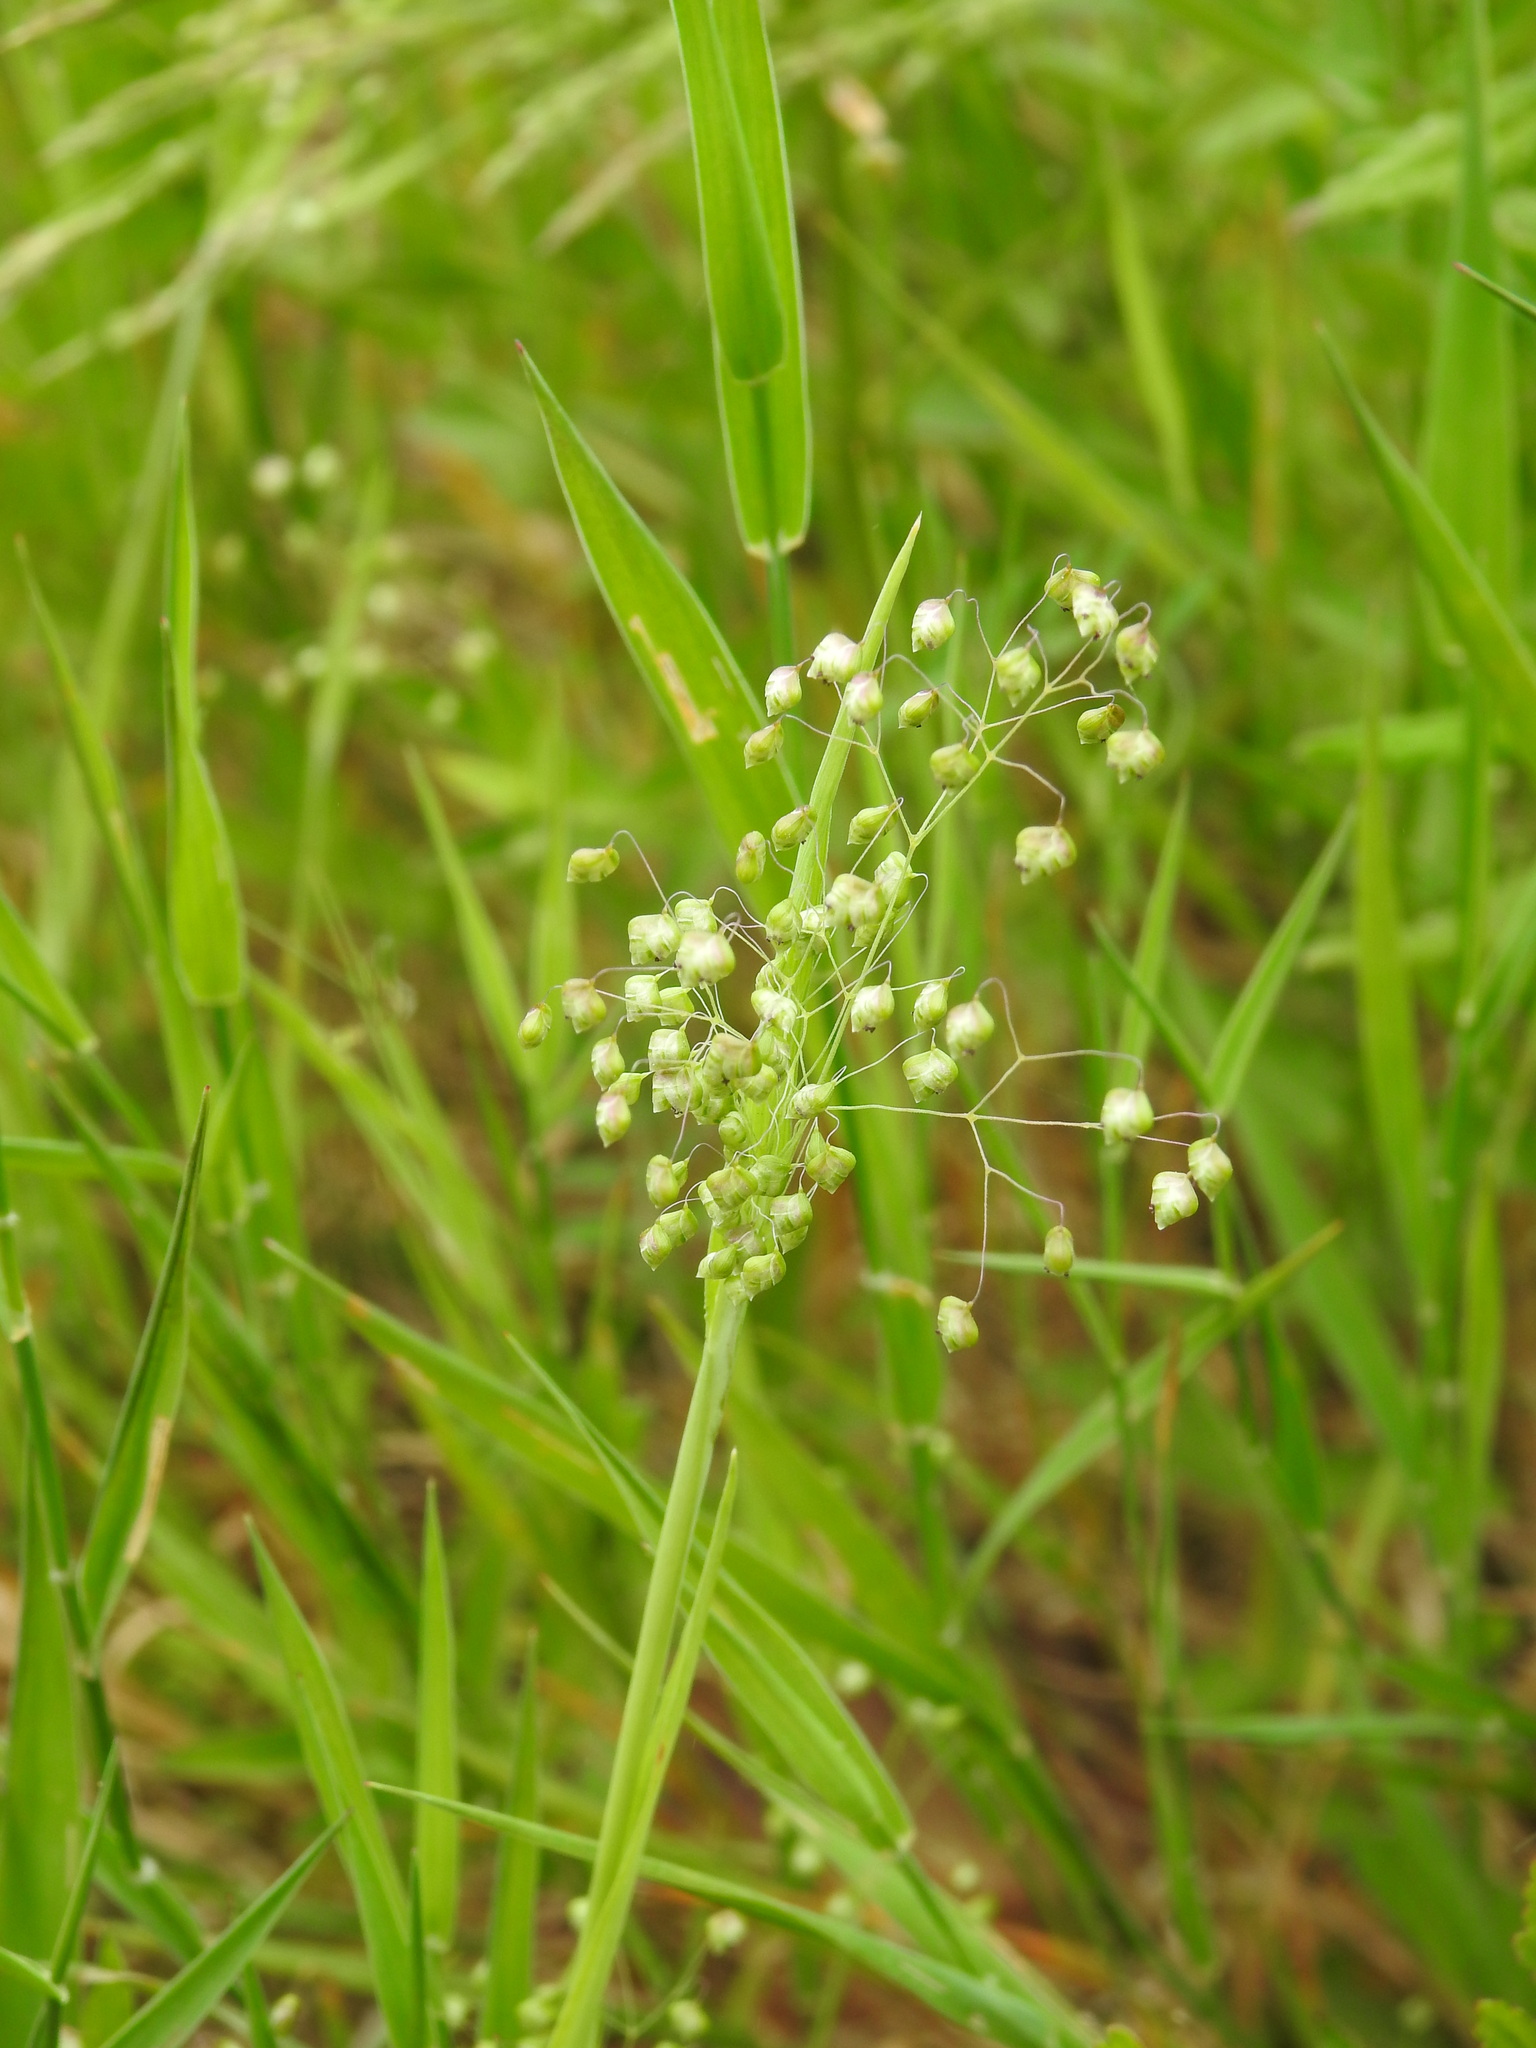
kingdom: Plantae
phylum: Tracheophyta
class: Liliopsida
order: Poales
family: Poaceae
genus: Briza
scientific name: Briza minor
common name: Lesser quaking-grass
